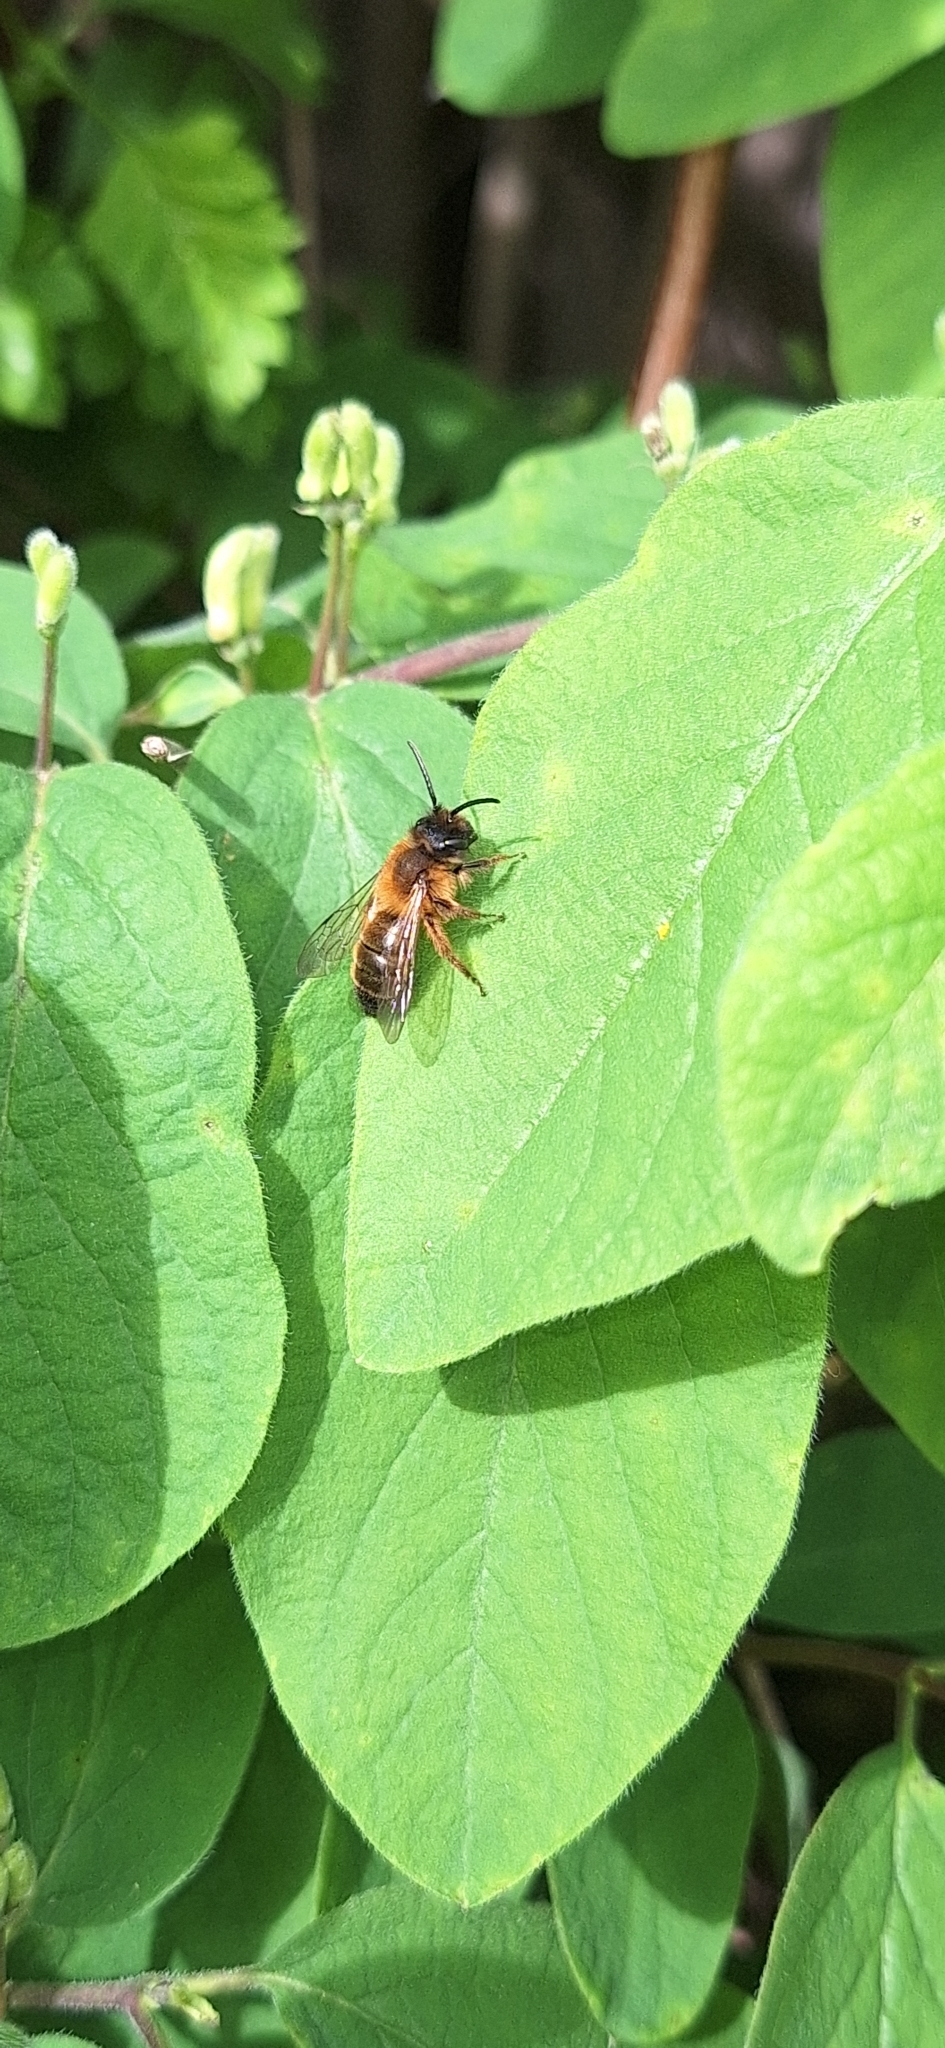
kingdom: Animalia
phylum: Arthropoda
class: Insecta
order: Hymenoptera
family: Andrenidae
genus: Andrena
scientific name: Andrena nigroaenea
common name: Buffish mining bee
